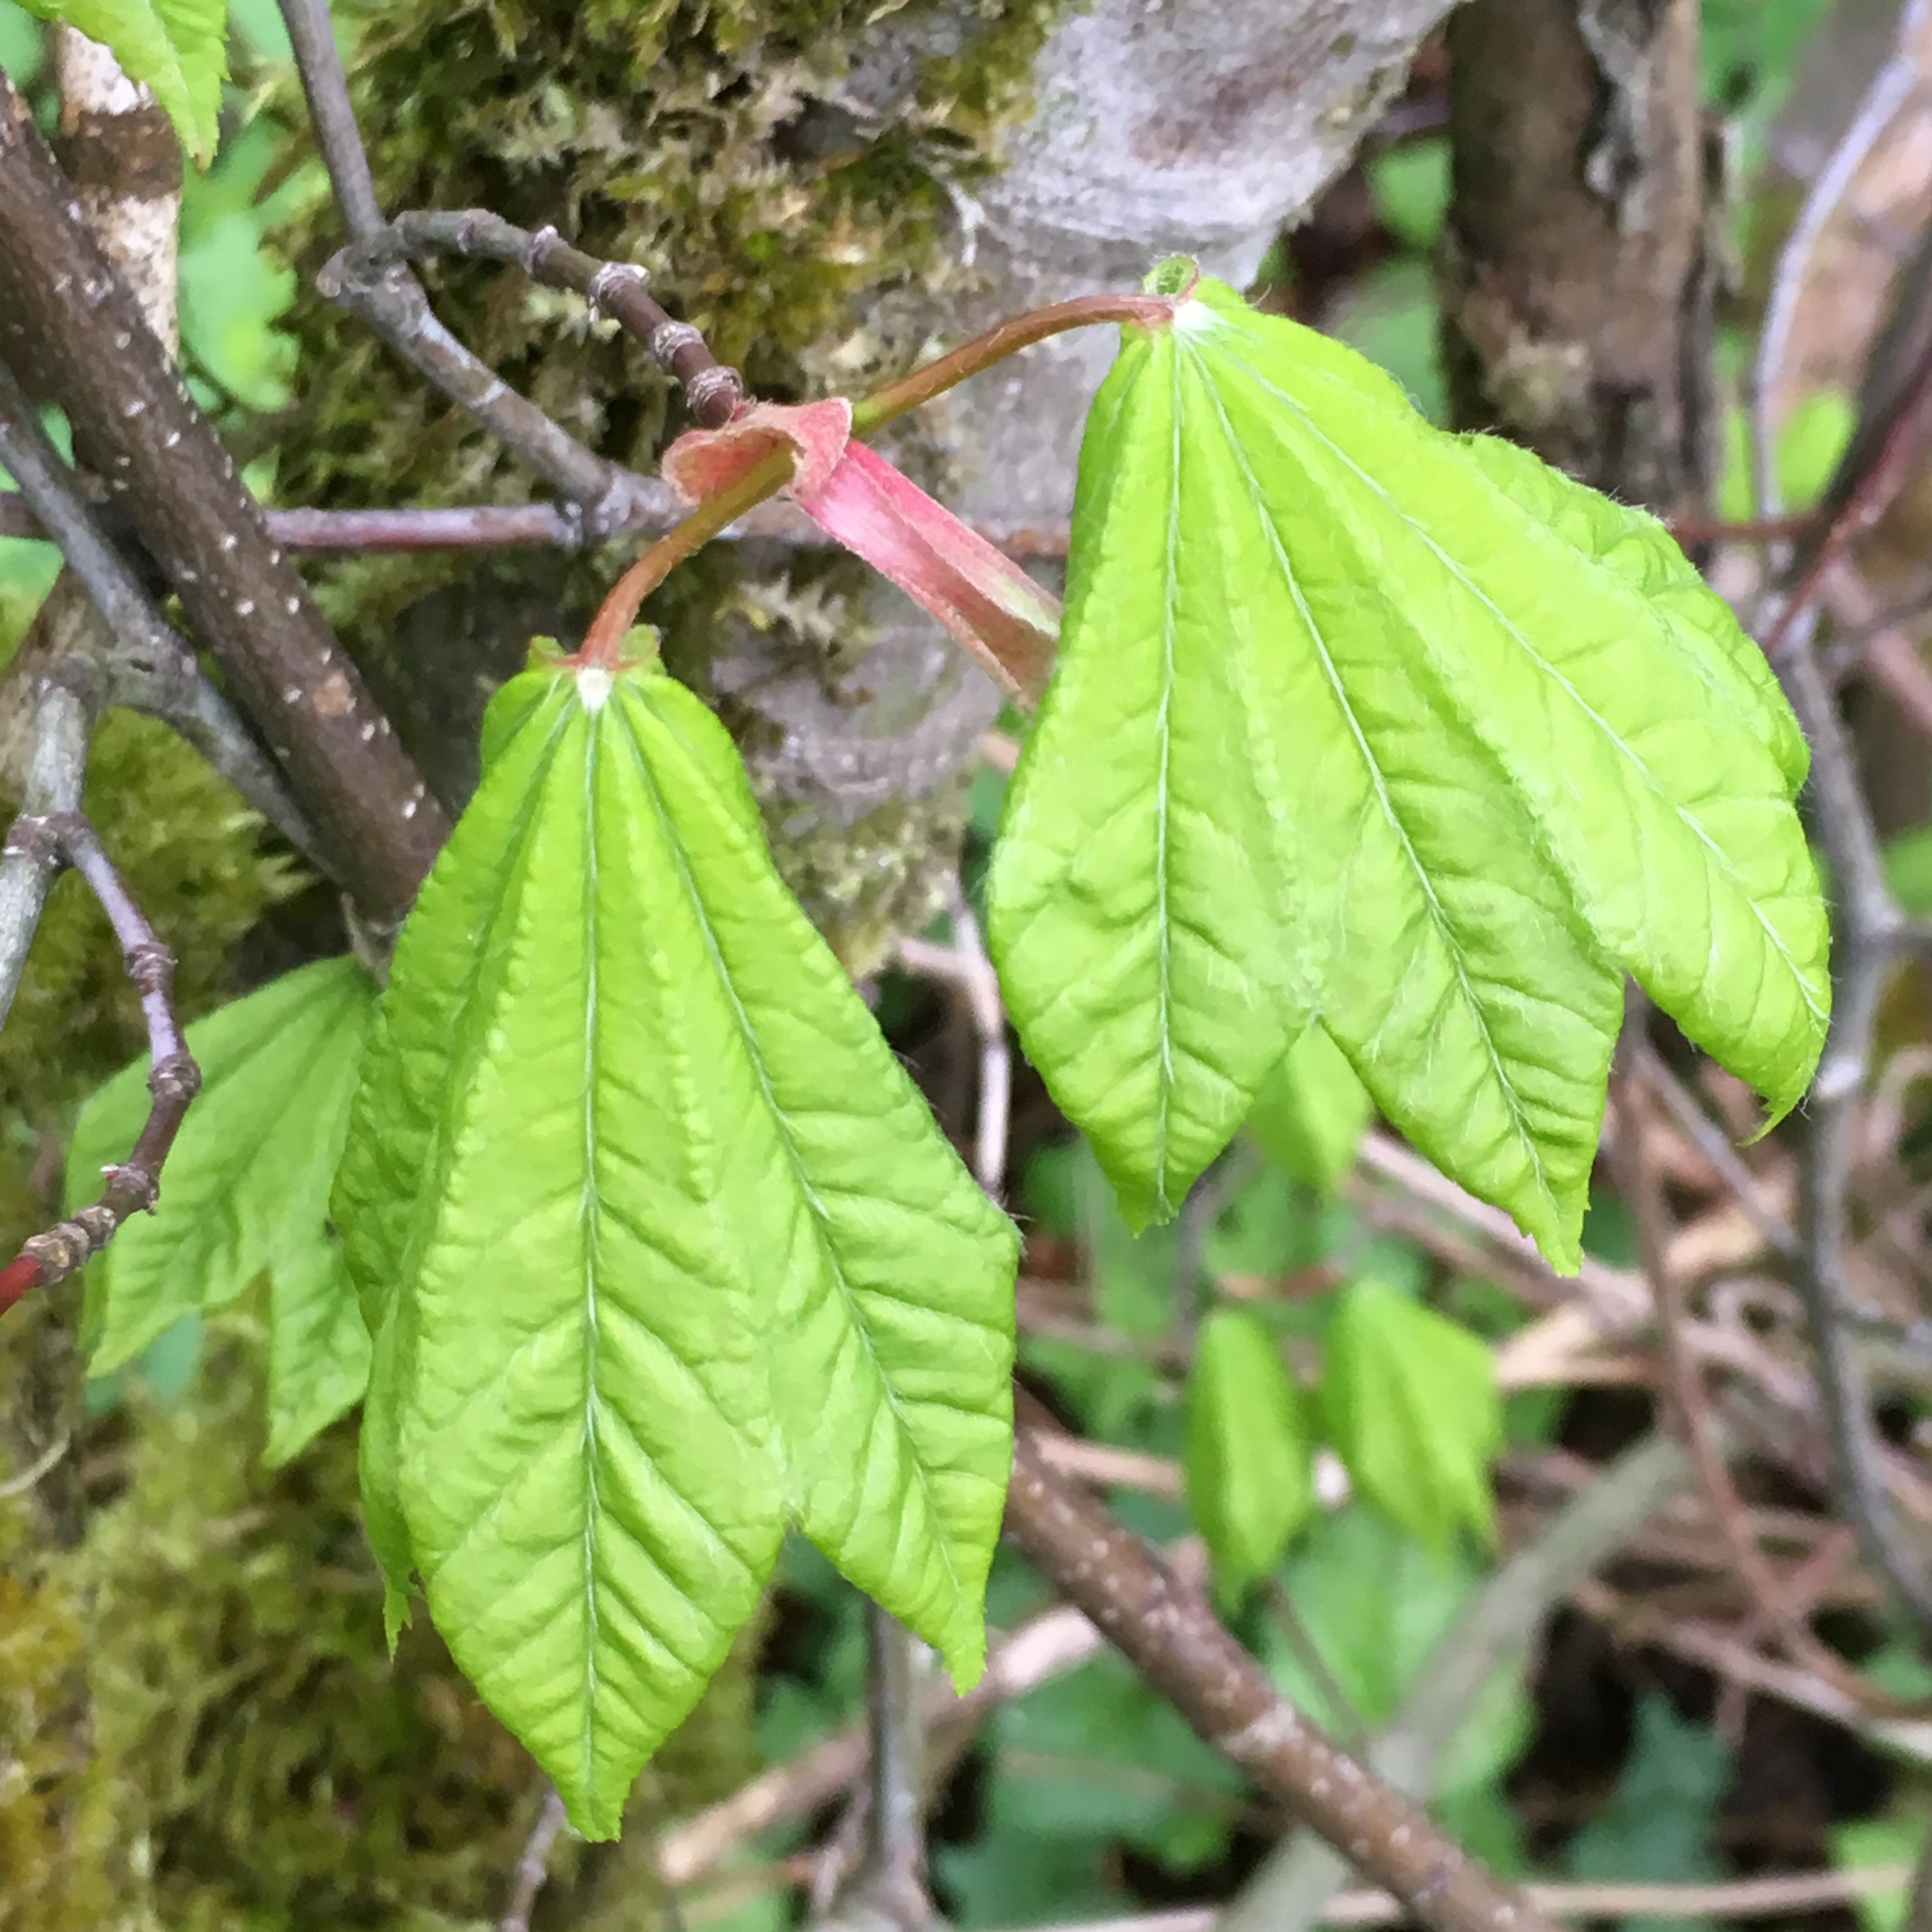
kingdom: Plantae
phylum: Tracheophyta
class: Magnoliopsida
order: Sapindales
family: Sapindaceae
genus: Acer
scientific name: Acer circinatum
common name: Vine maple
